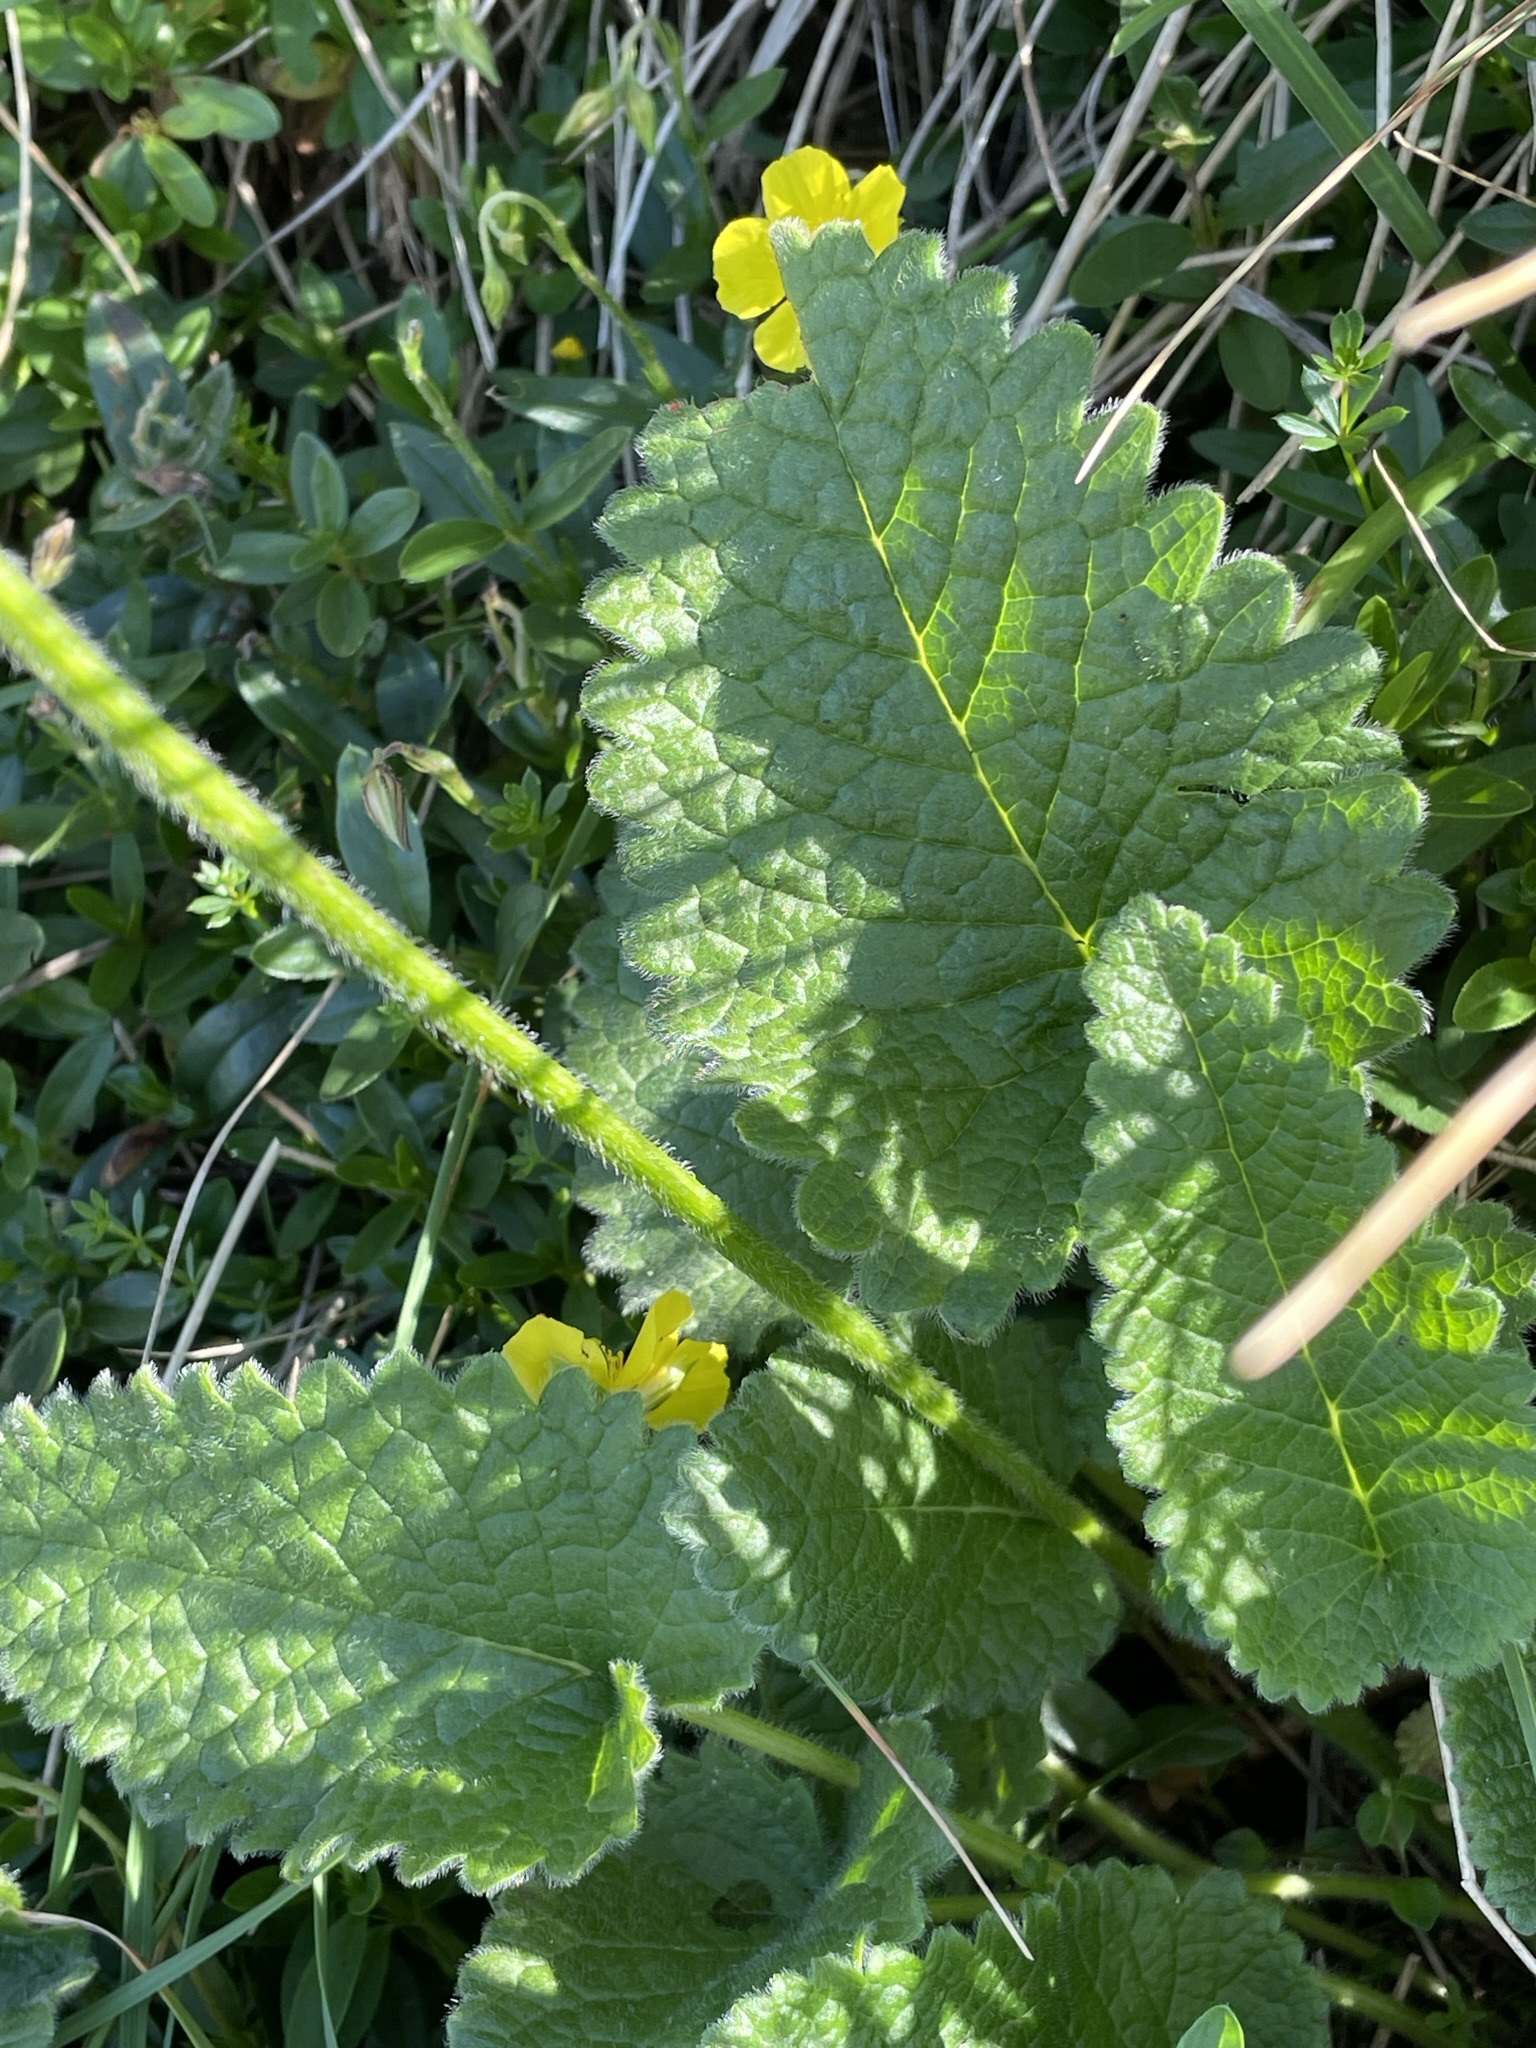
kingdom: Plantae
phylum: Tracheophyta
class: Magnoliopsida
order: Lamiales
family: Lamiaceae
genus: Betonica
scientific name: Betonica alopecuros
